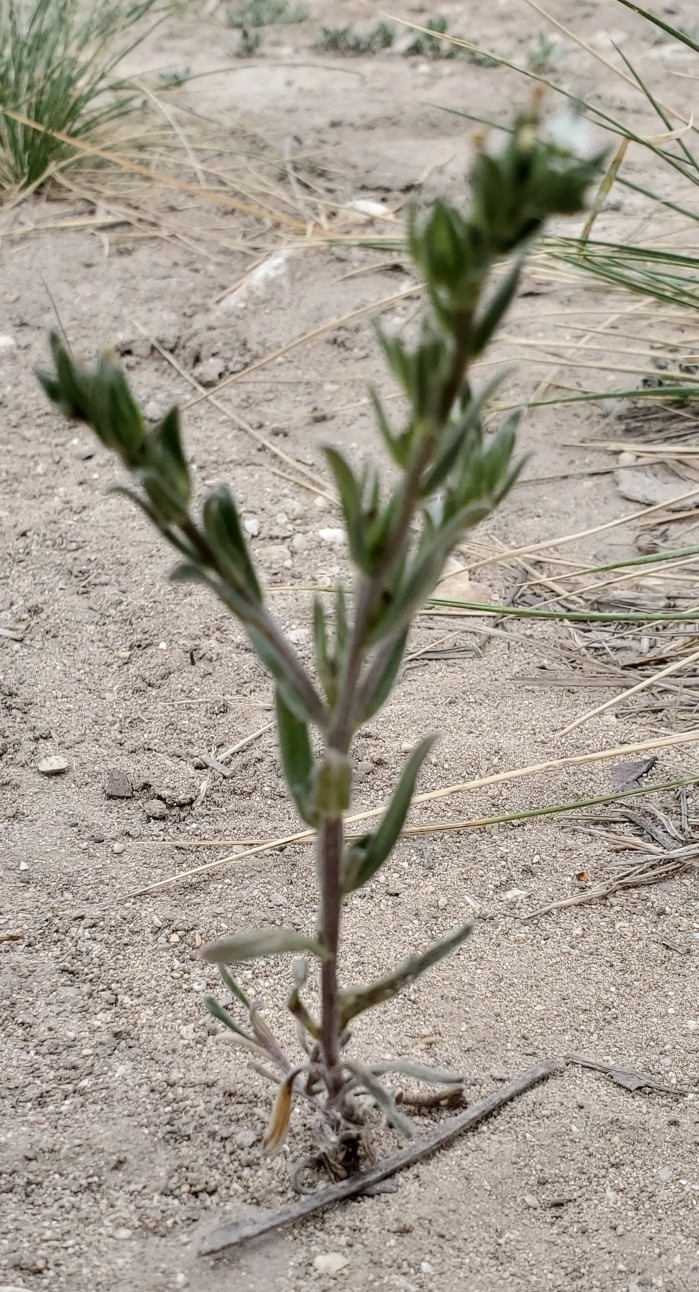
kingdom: Plantae
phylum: Tracheophyta
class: Magnoliopsida
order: Boraginales
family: Boraginaceae
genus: Buglossoides
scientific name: Buglossoides arvensis
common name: Corn gromwell
